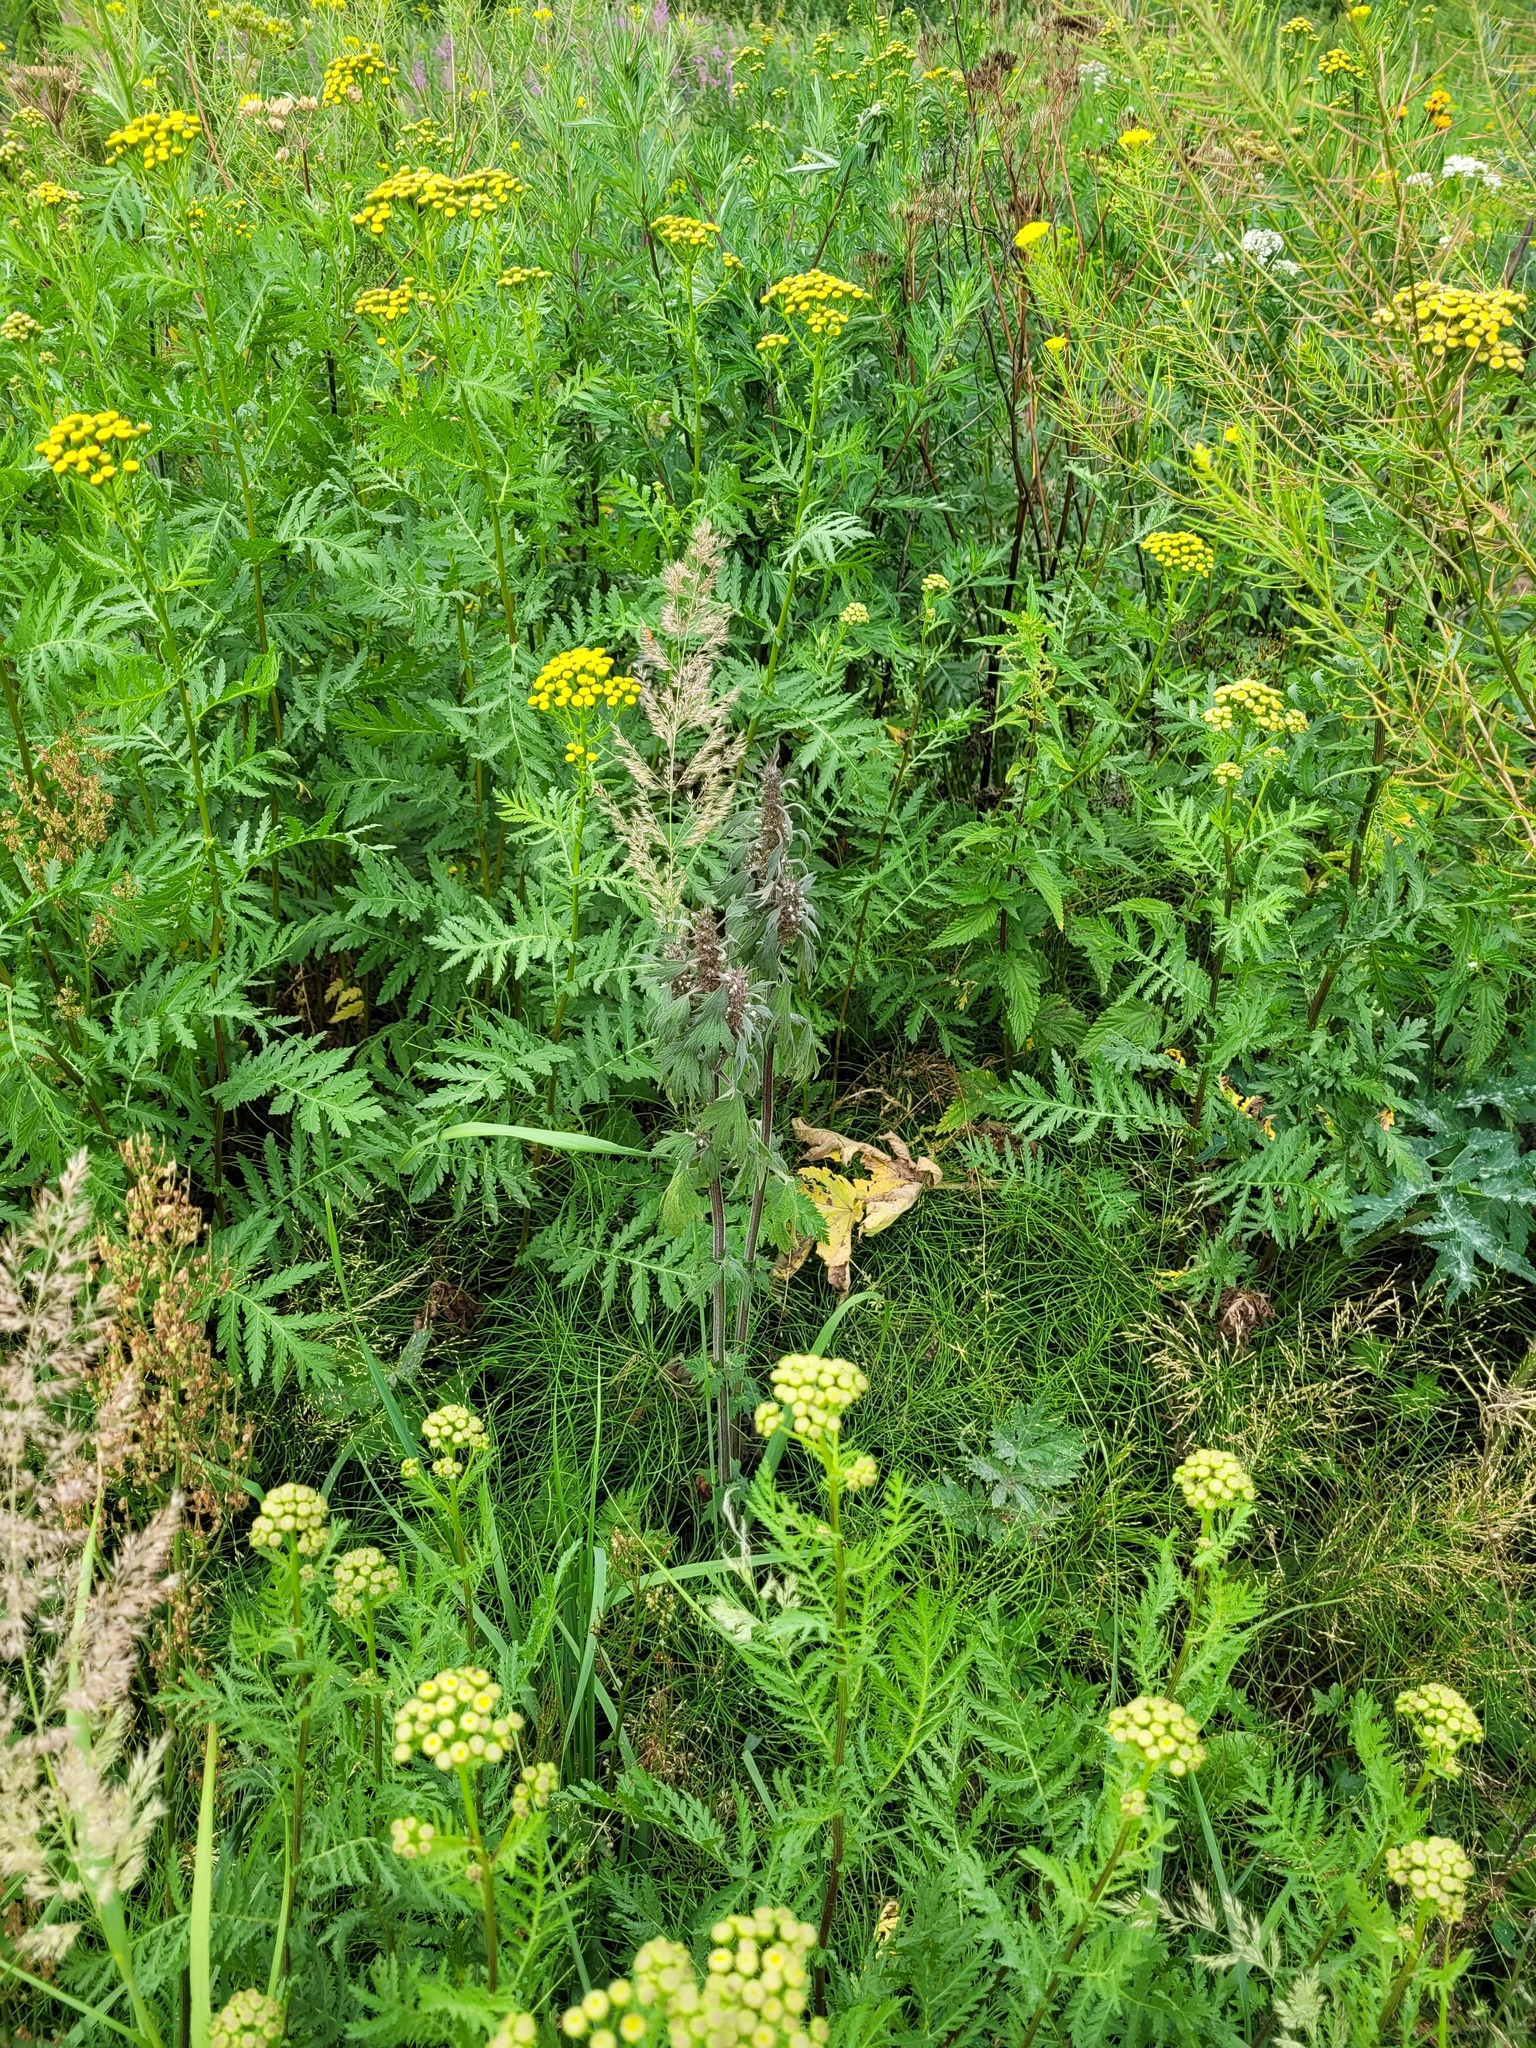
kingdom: Plantae
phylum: Tracheophyta
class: Magnoliopsida
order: Lamiales
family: Lamiaceae
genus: Leonurus
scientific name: Leonurus quinquelobatus
